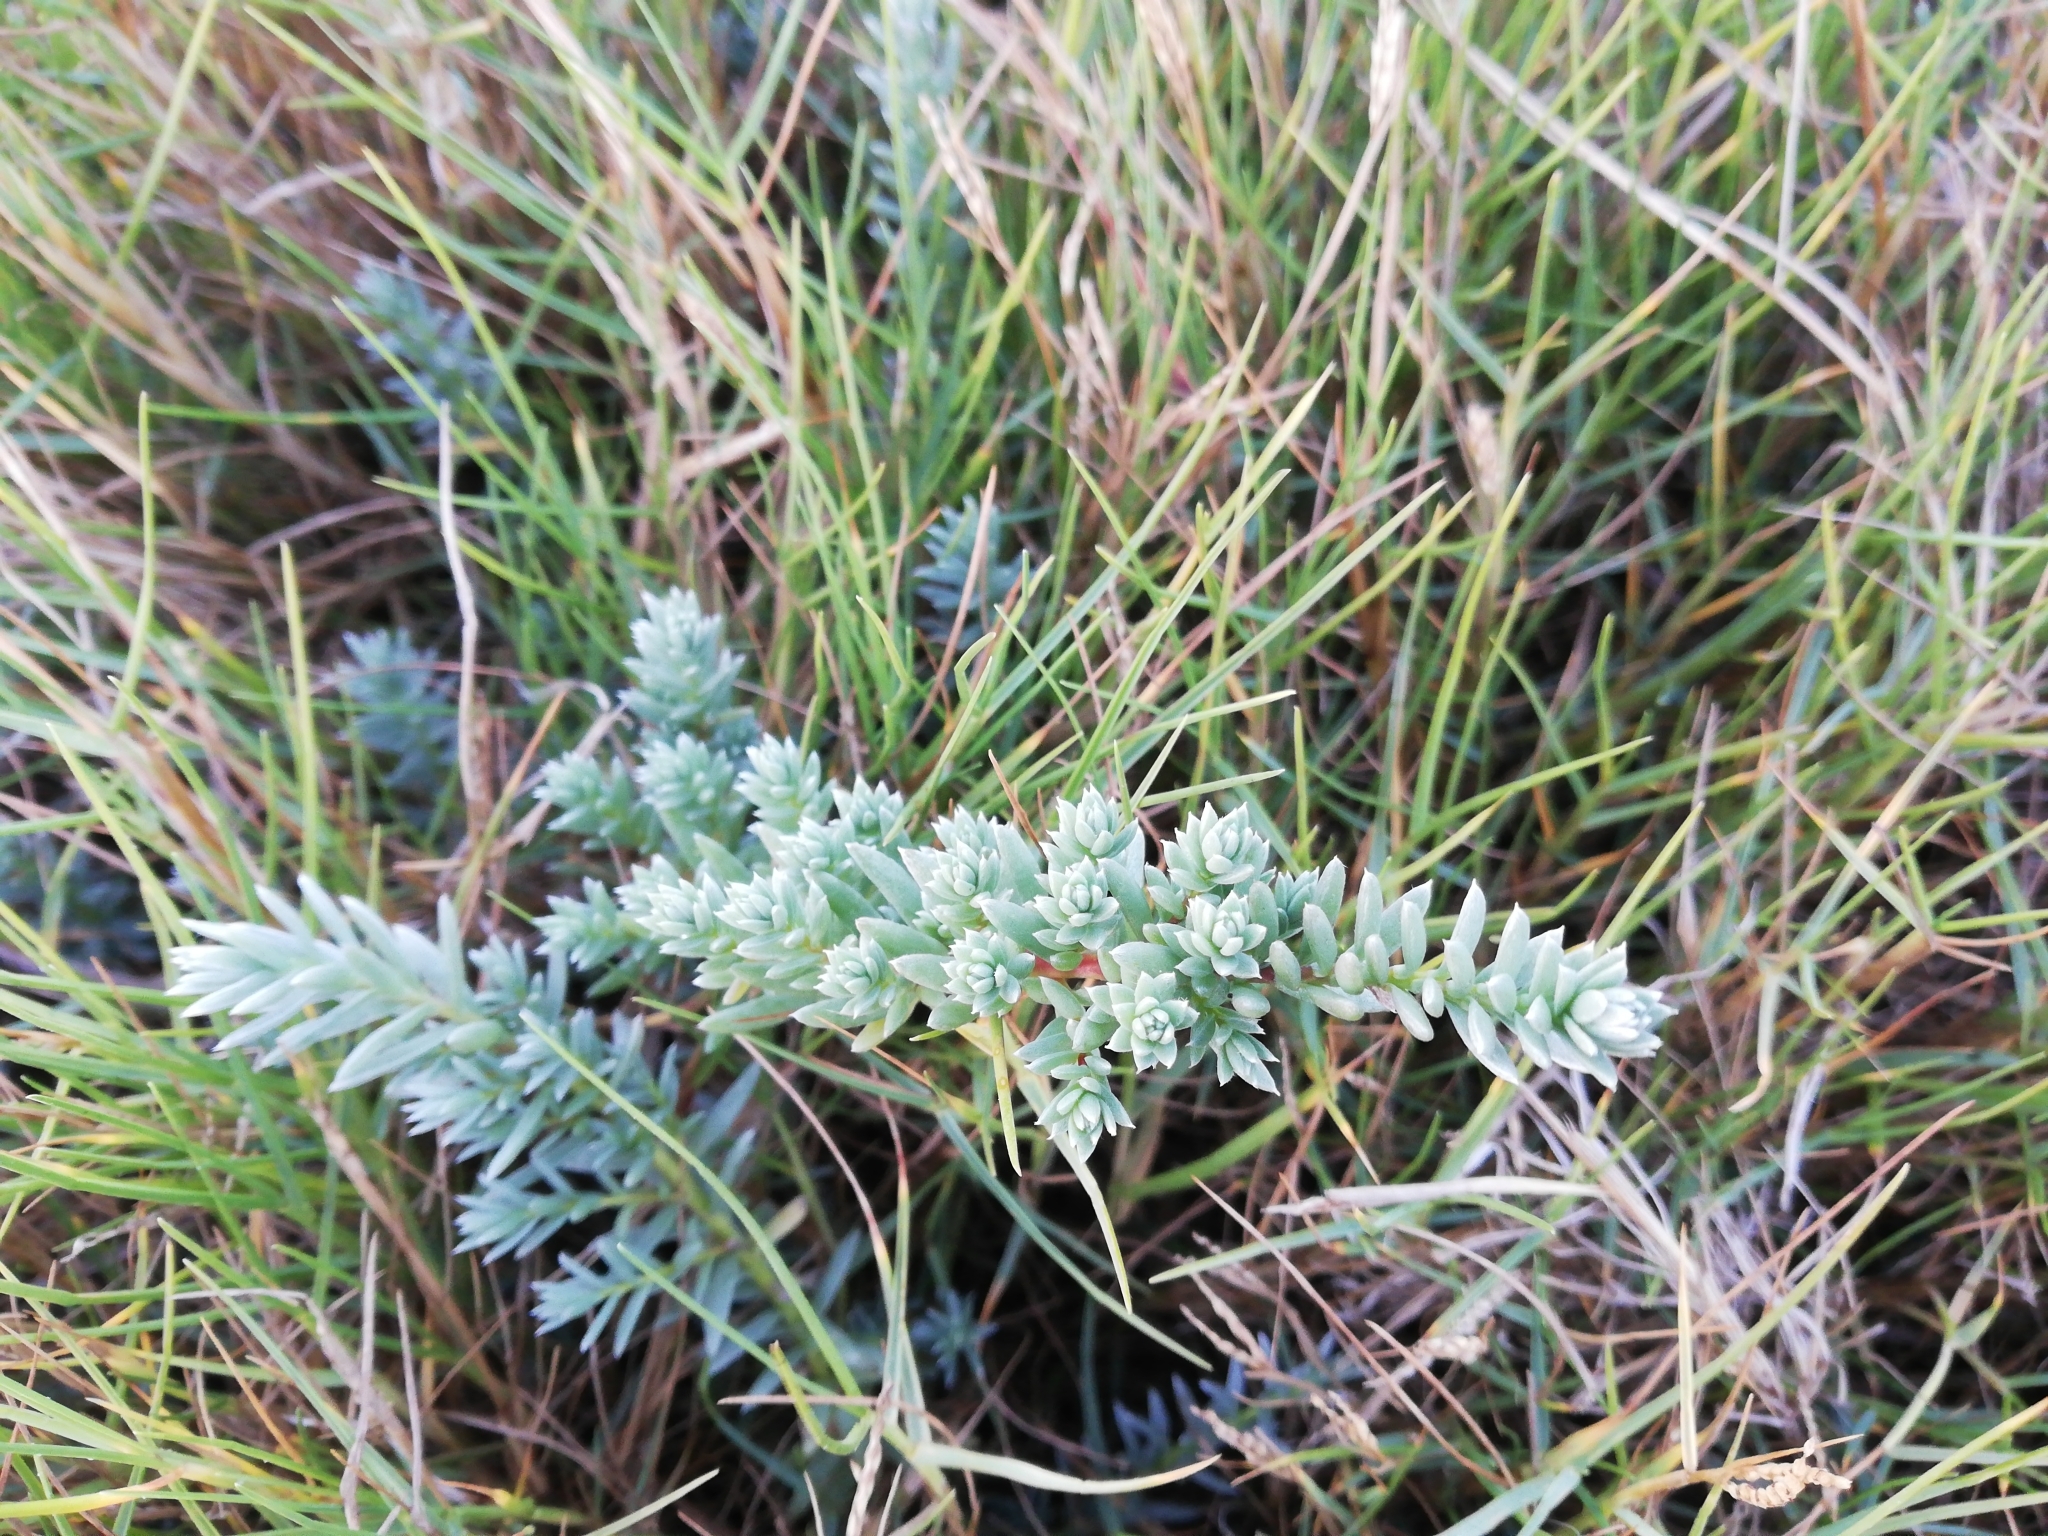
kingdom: Plantae
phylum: Tracheophyta
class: Magnoliopsida
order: Caryophyllales
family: Amaranthaceae
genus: Chenolea
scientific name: Chenolea diffusa
